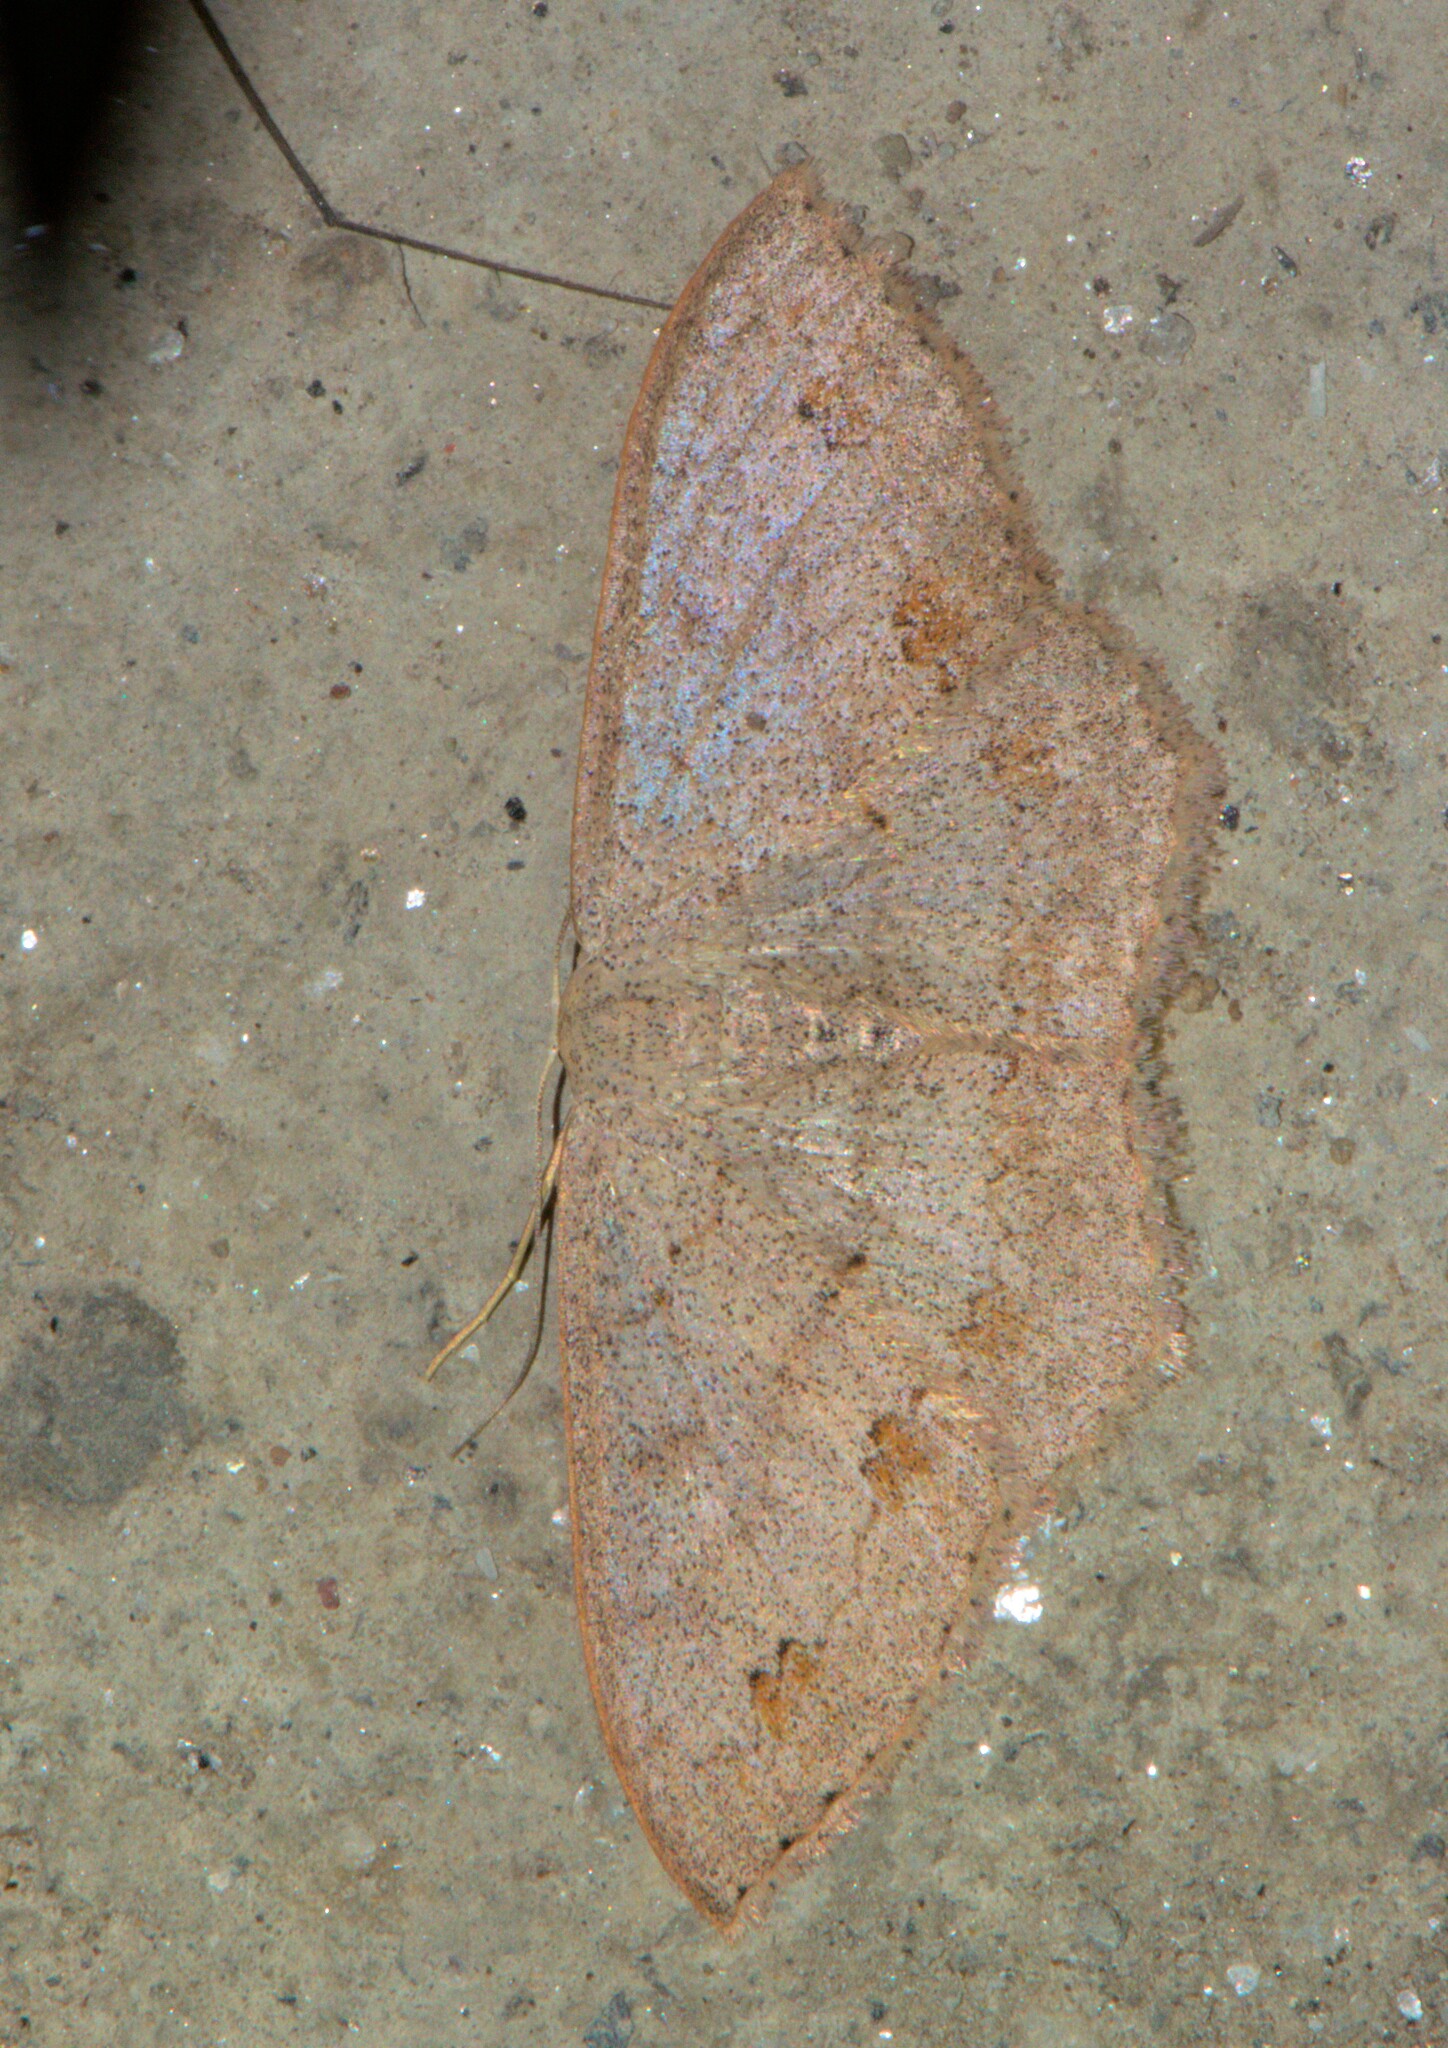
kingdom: Animalia
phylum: Arthropoda
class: Insecta
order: Lepidoptera
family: Geometridae
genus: Scopula
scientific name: Scopula moorei
